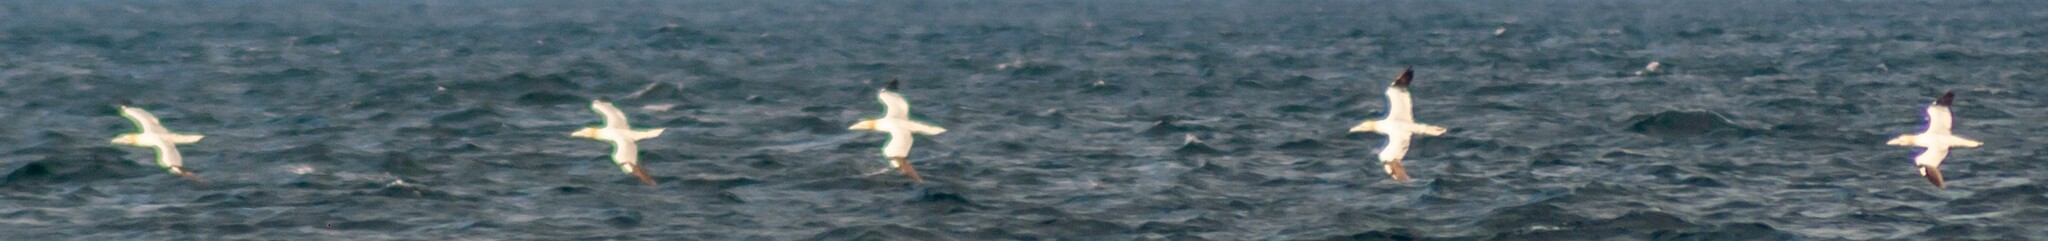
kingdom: Animalia
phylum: Chordata
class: Aves
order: Suliformes
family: Sulidae
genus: Morus
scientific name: Morus bassanus
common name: Northern gannet
